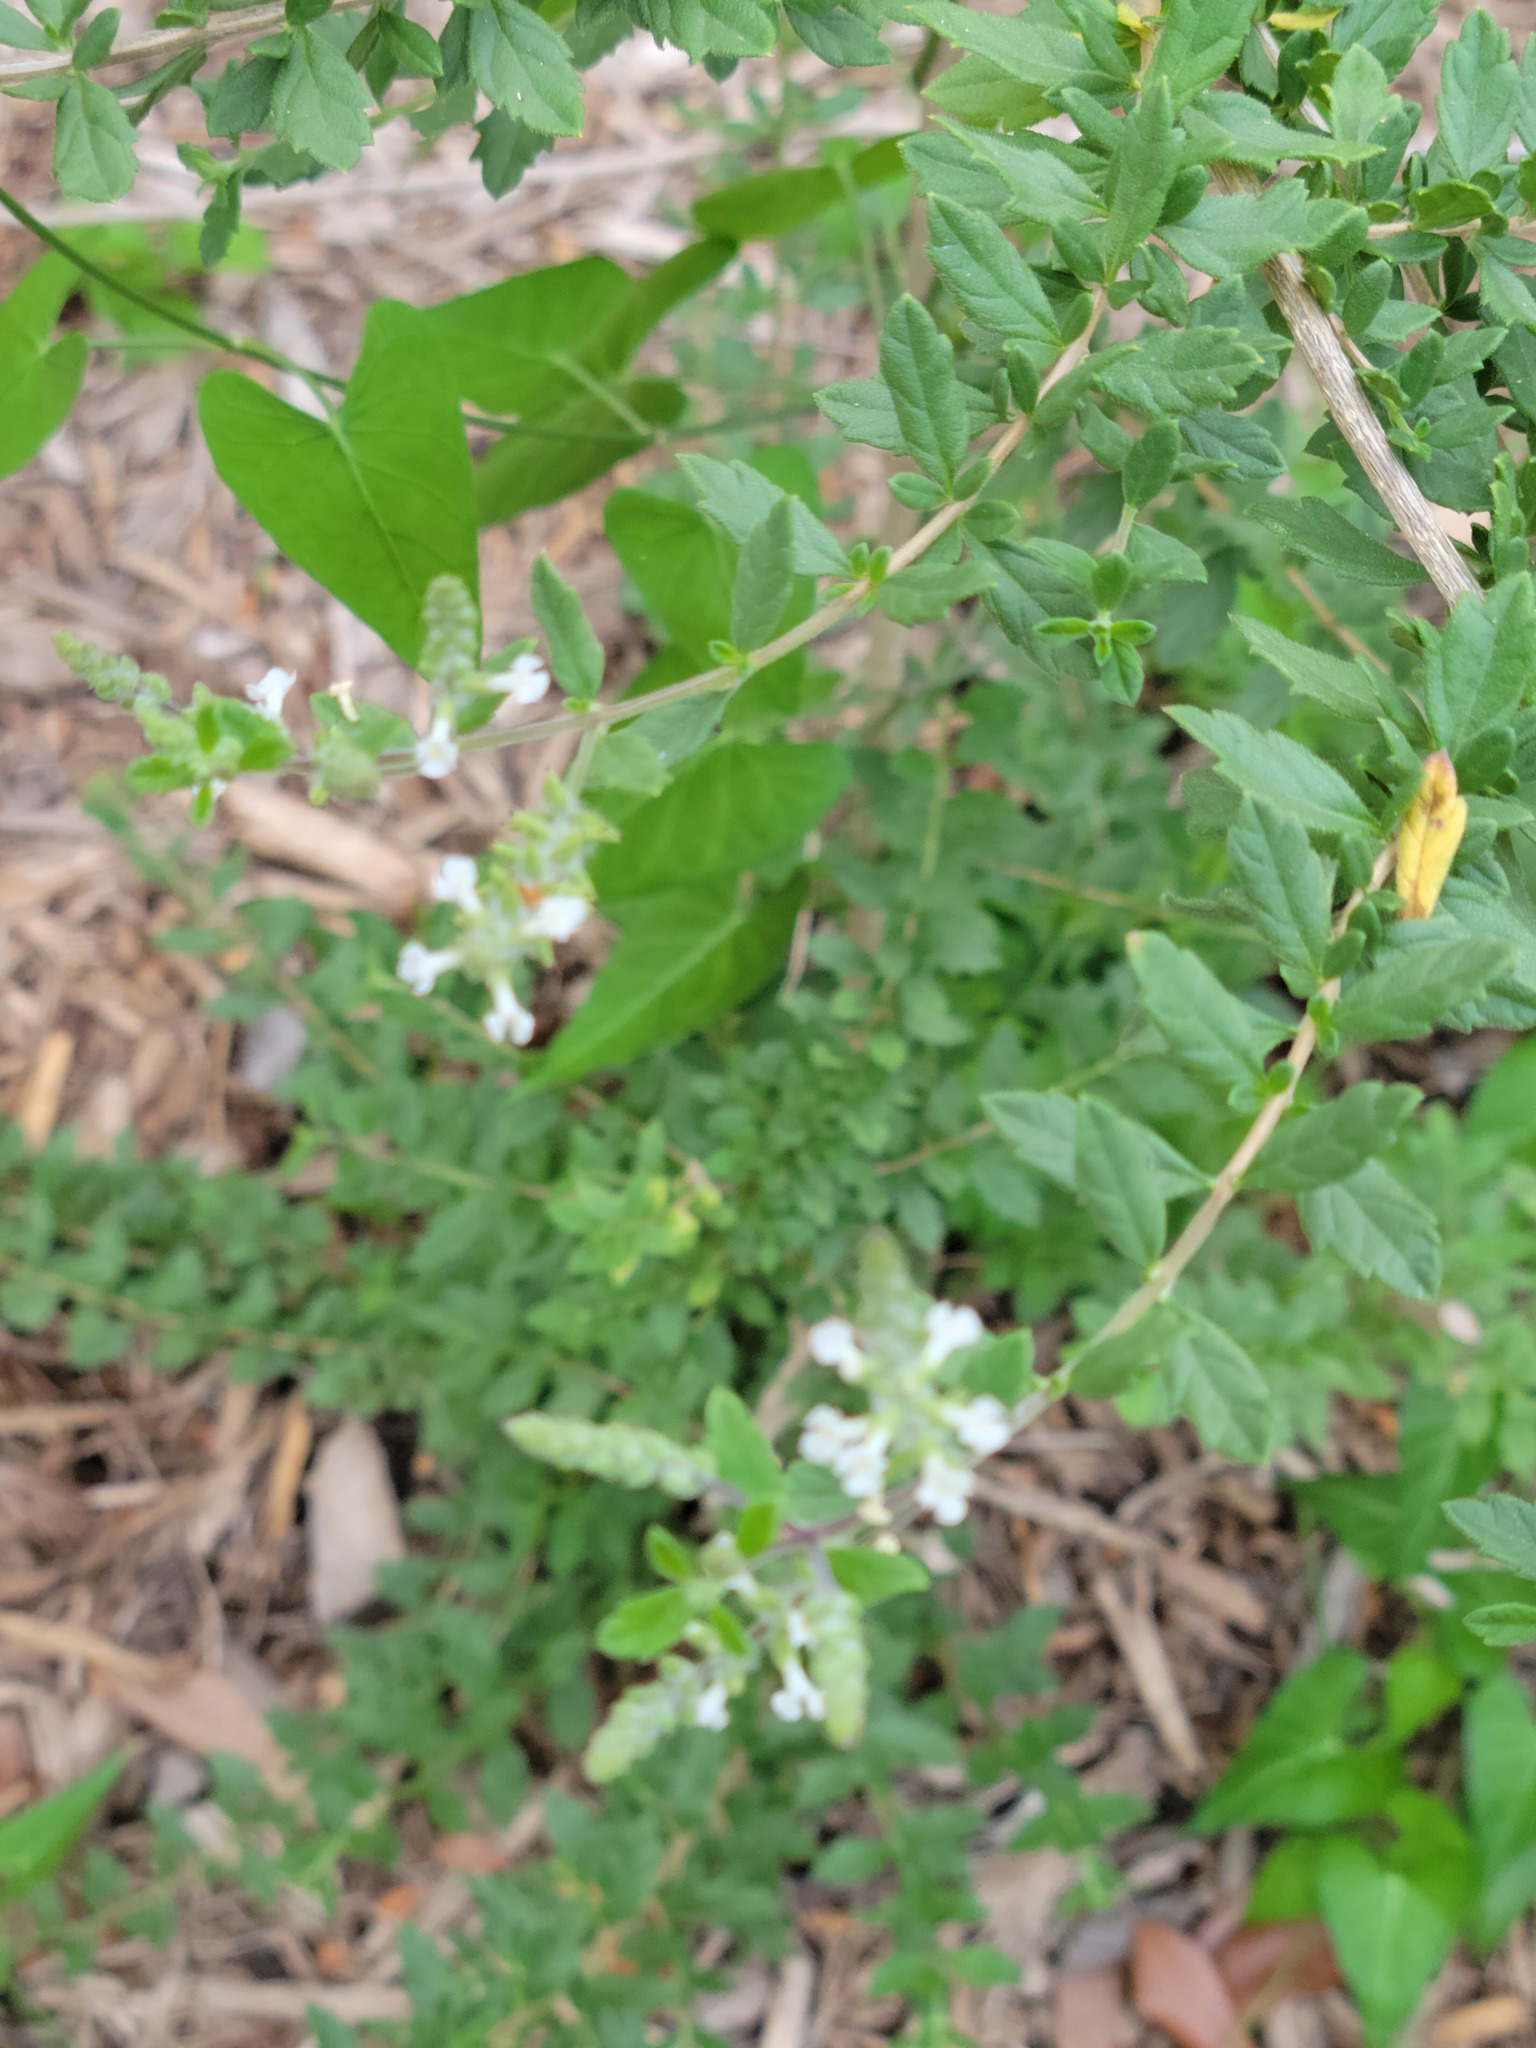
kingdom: Plantae
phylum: Tracheophyta
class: Magnoliopsida
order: Lamiales
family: Verbenaceae
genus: Aloysia
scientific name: Aloysia gratissima
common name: Common bee-brush
